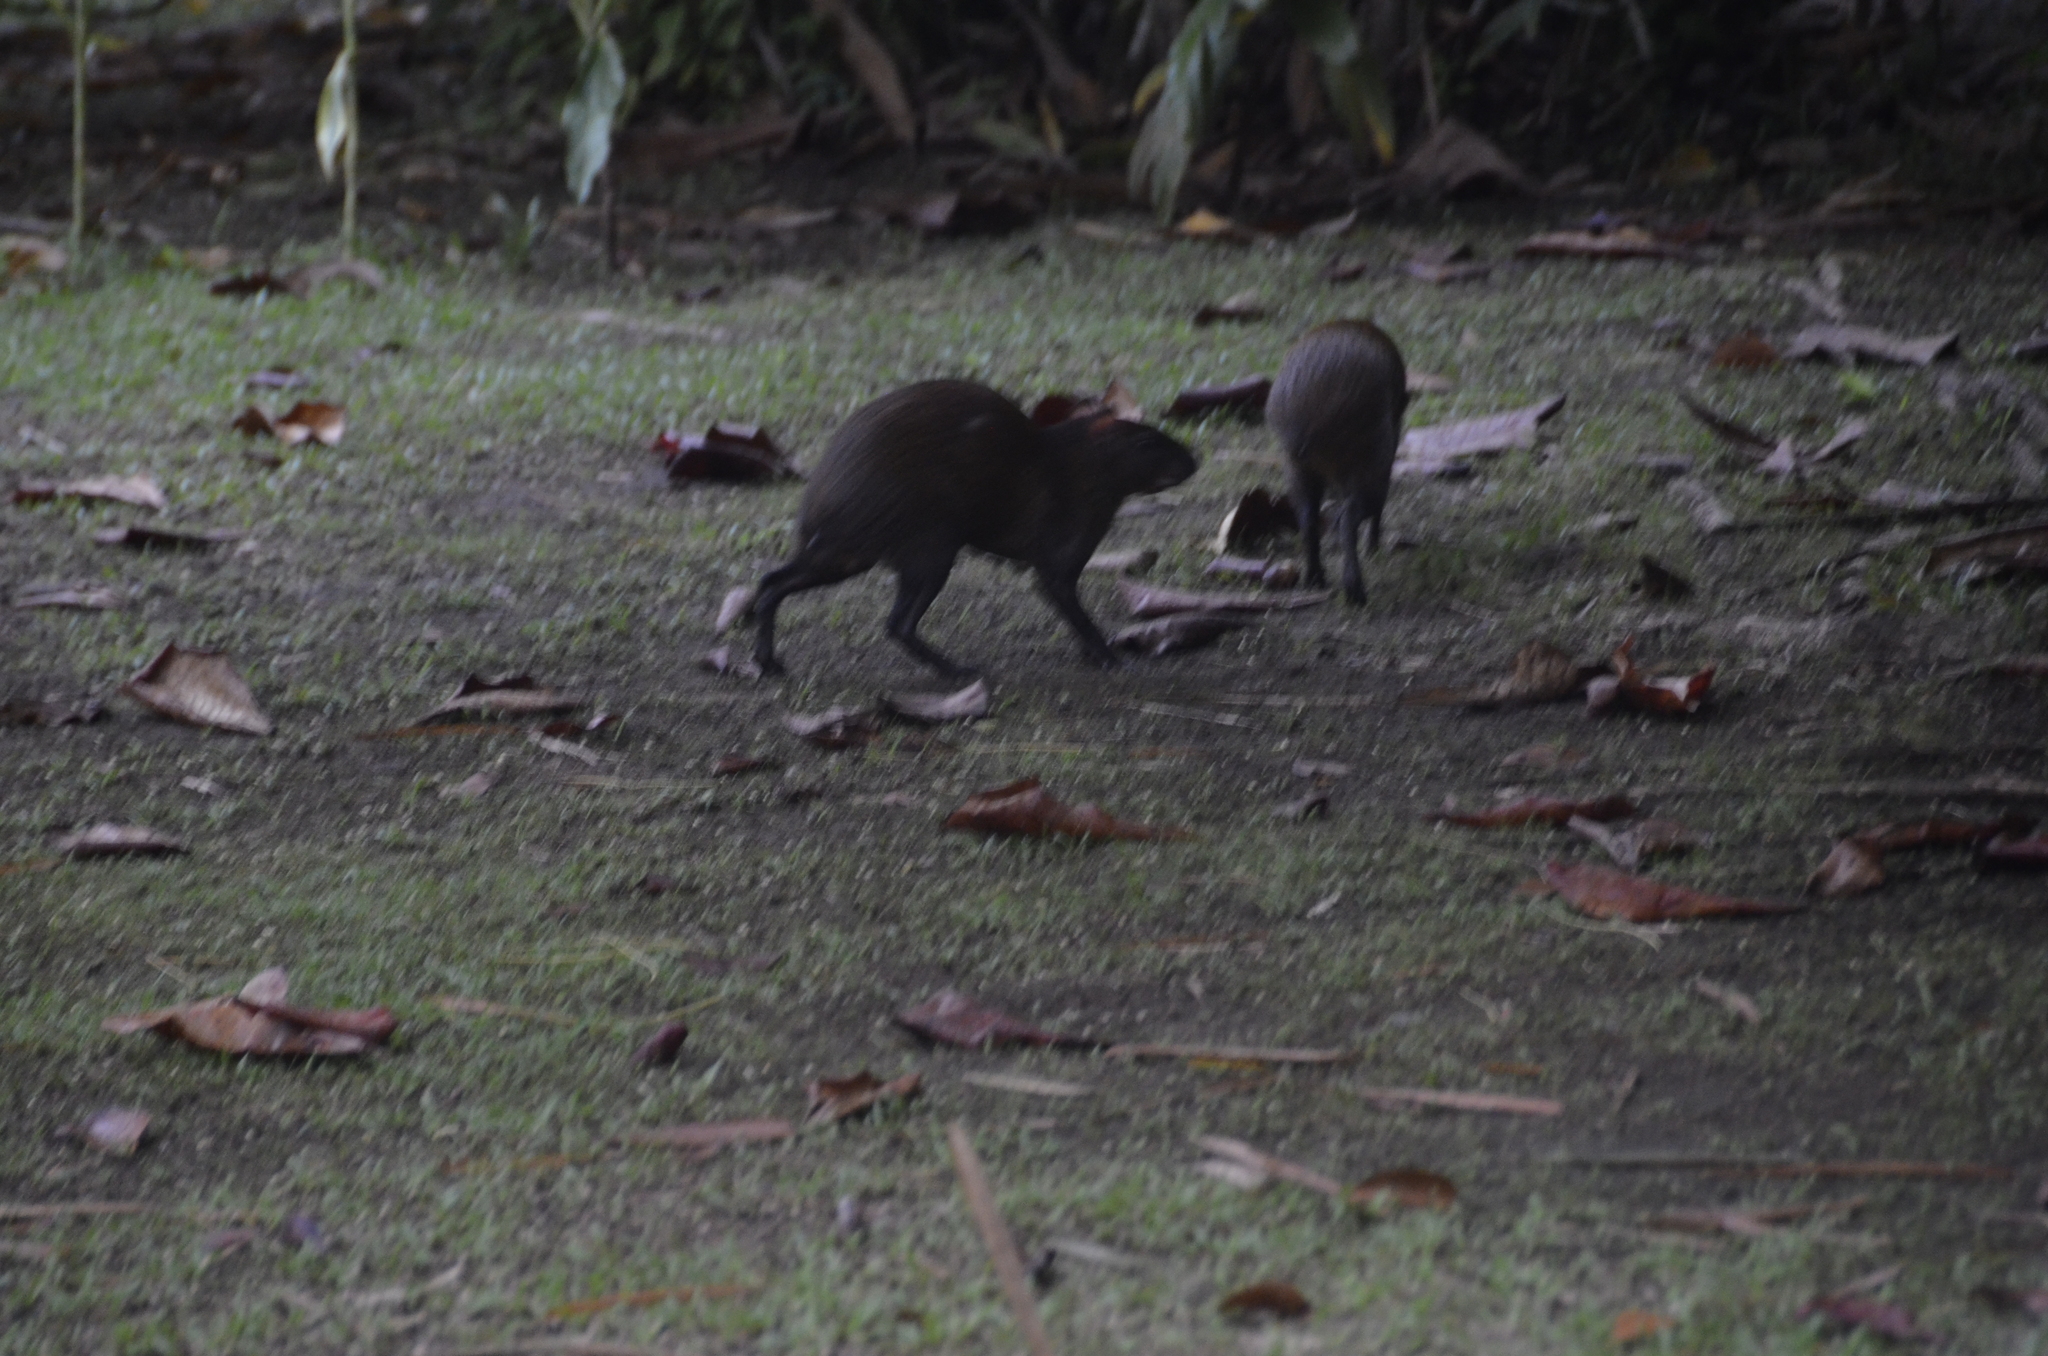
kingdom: Animalia
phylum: Chordata
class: Mammalia
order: Rodentia
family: Dasyproctidae
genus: Dasyprocta
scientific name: Dasyprocta punctata
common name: Central american agouti
